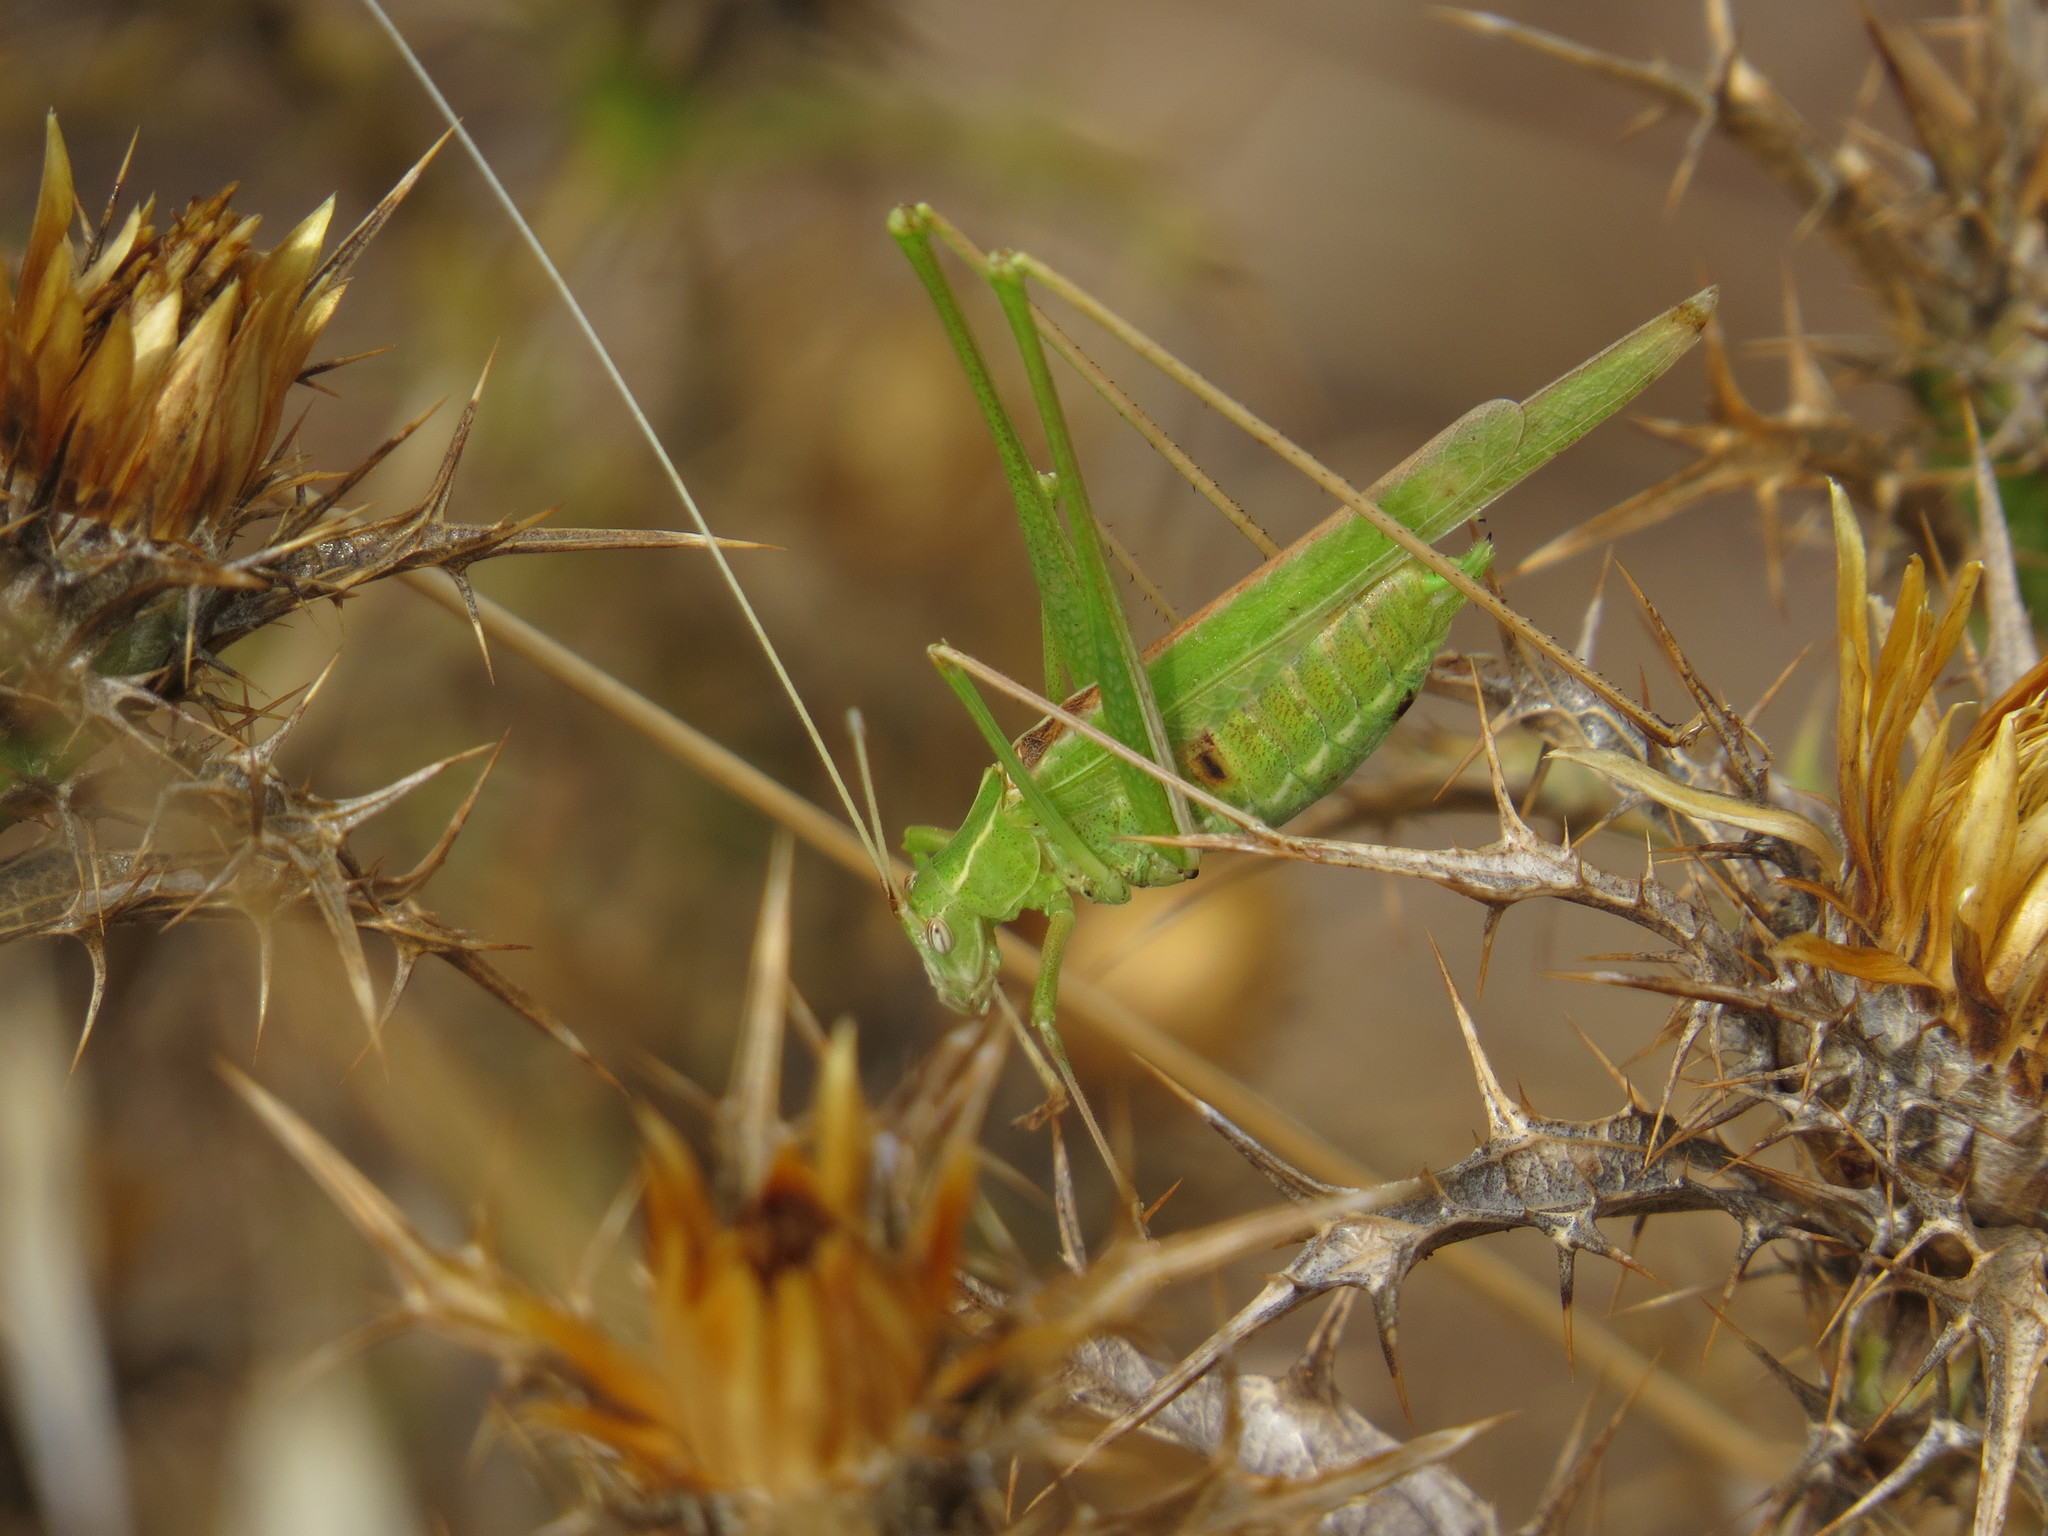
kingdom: Animalia
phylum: Arthropoda
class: Insecta
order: Orthoptera
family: Tettigoniidae
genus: Tylopsis
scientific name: Tylopsis lilifolia
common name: Lily bush-cricket
